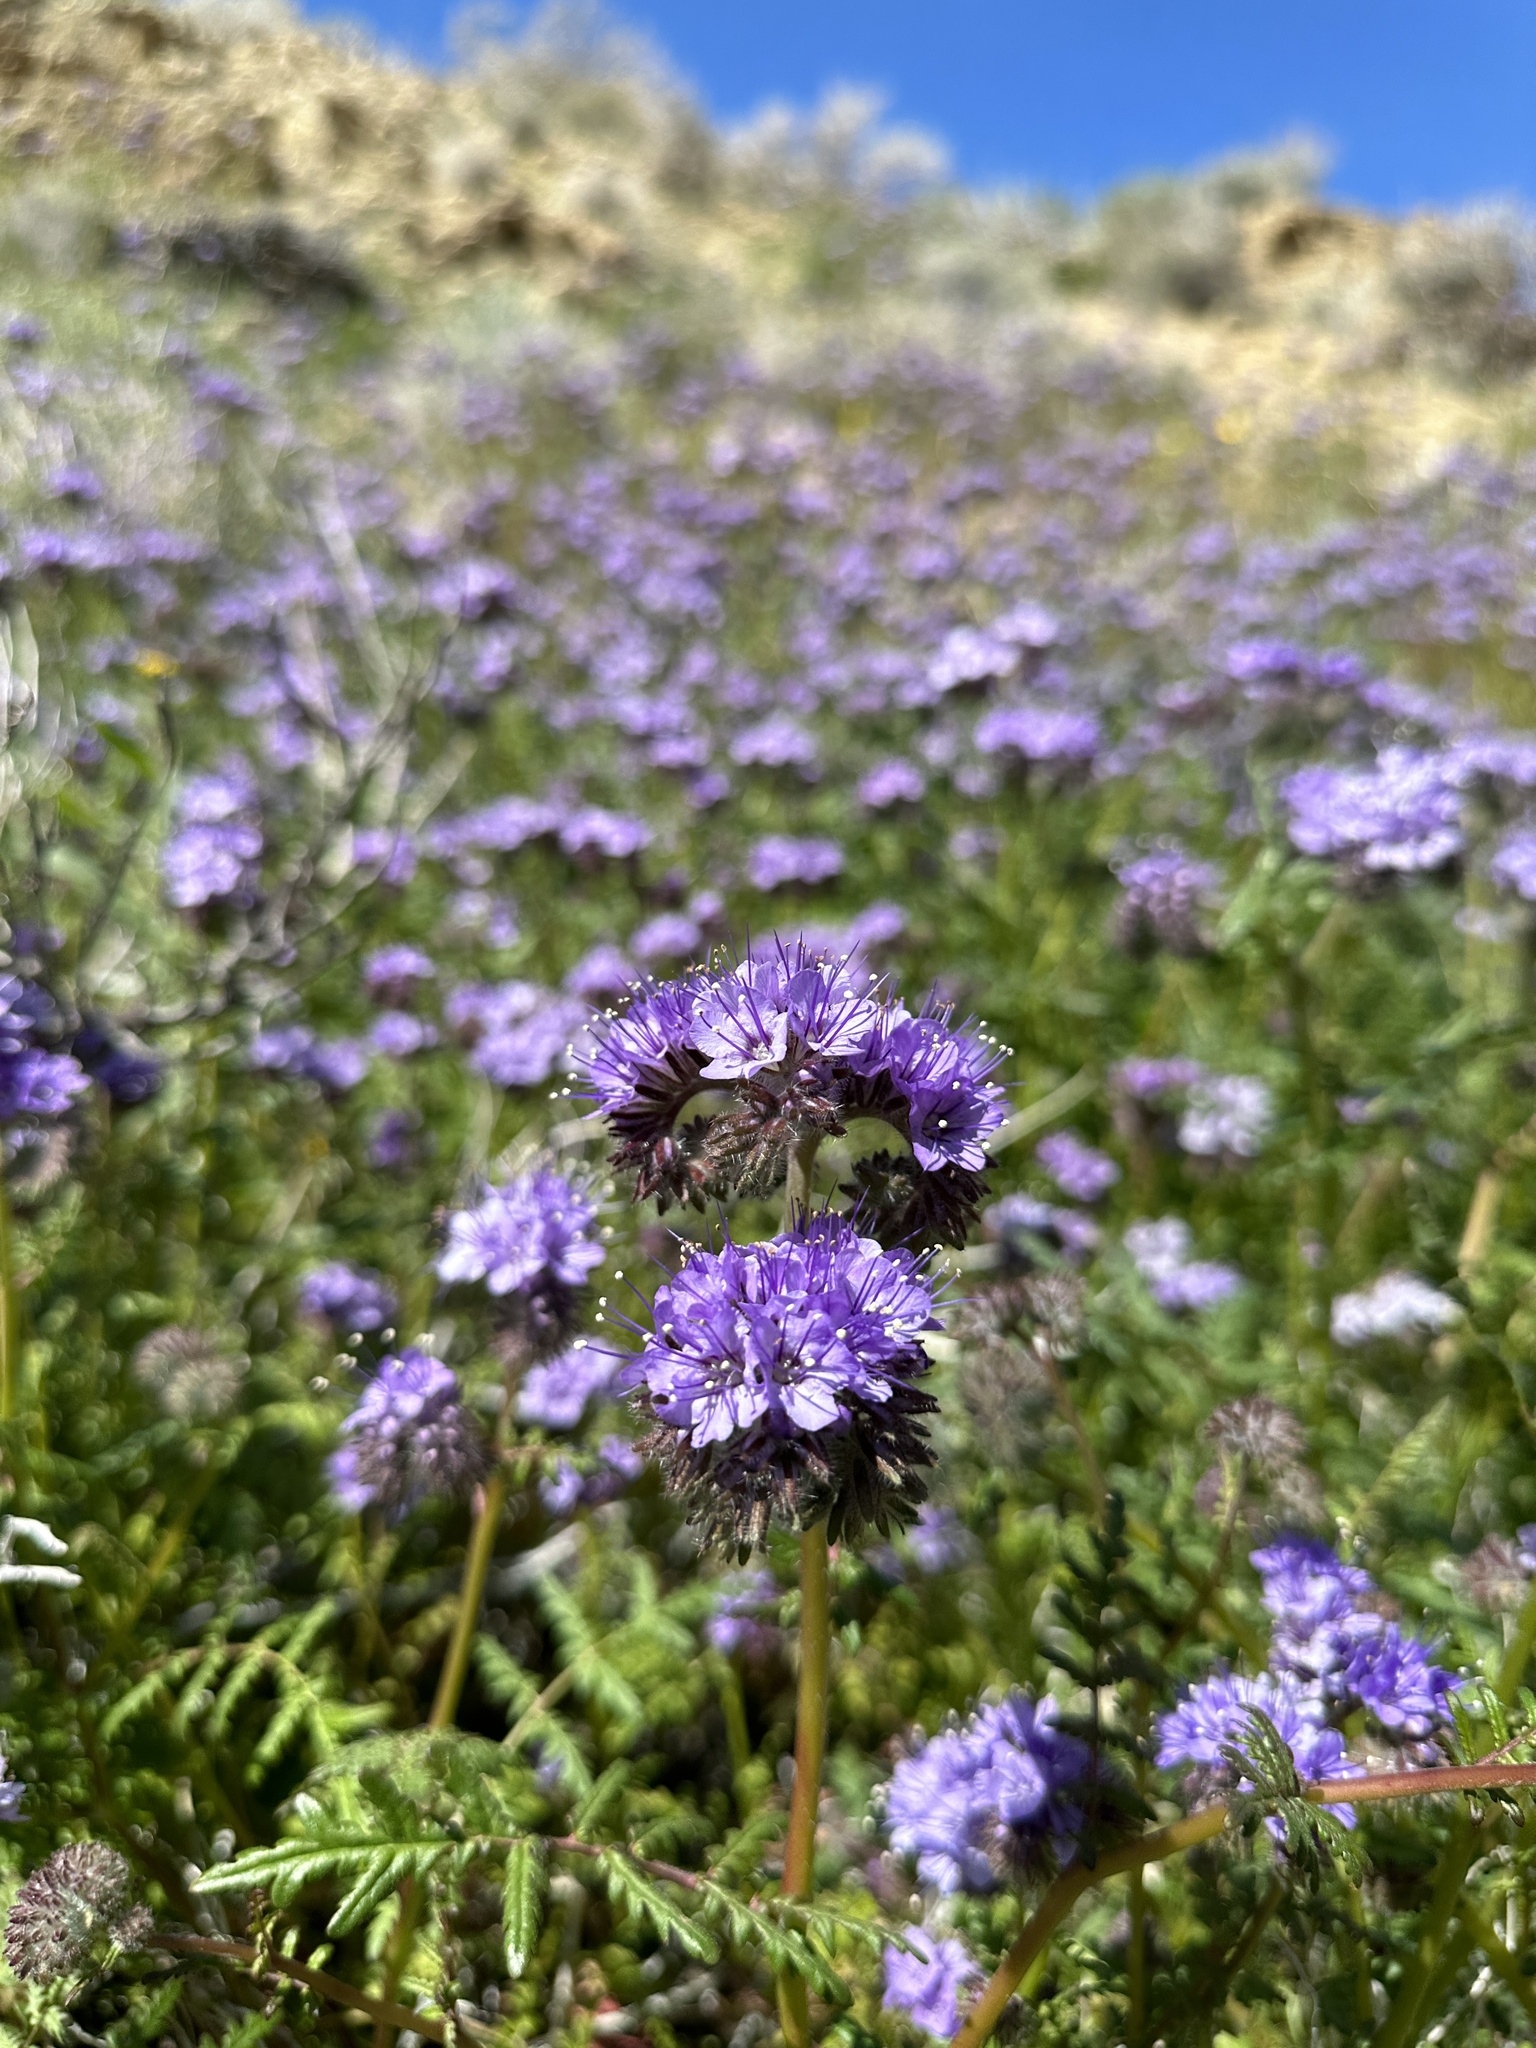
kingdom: Plantae
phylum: Tracheophyta
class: Magnoliopsida
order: Boraginales
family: Hydrophyllaceae
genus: Phacelia
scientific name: Phacelia tanacetifolia
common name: Phacelia
